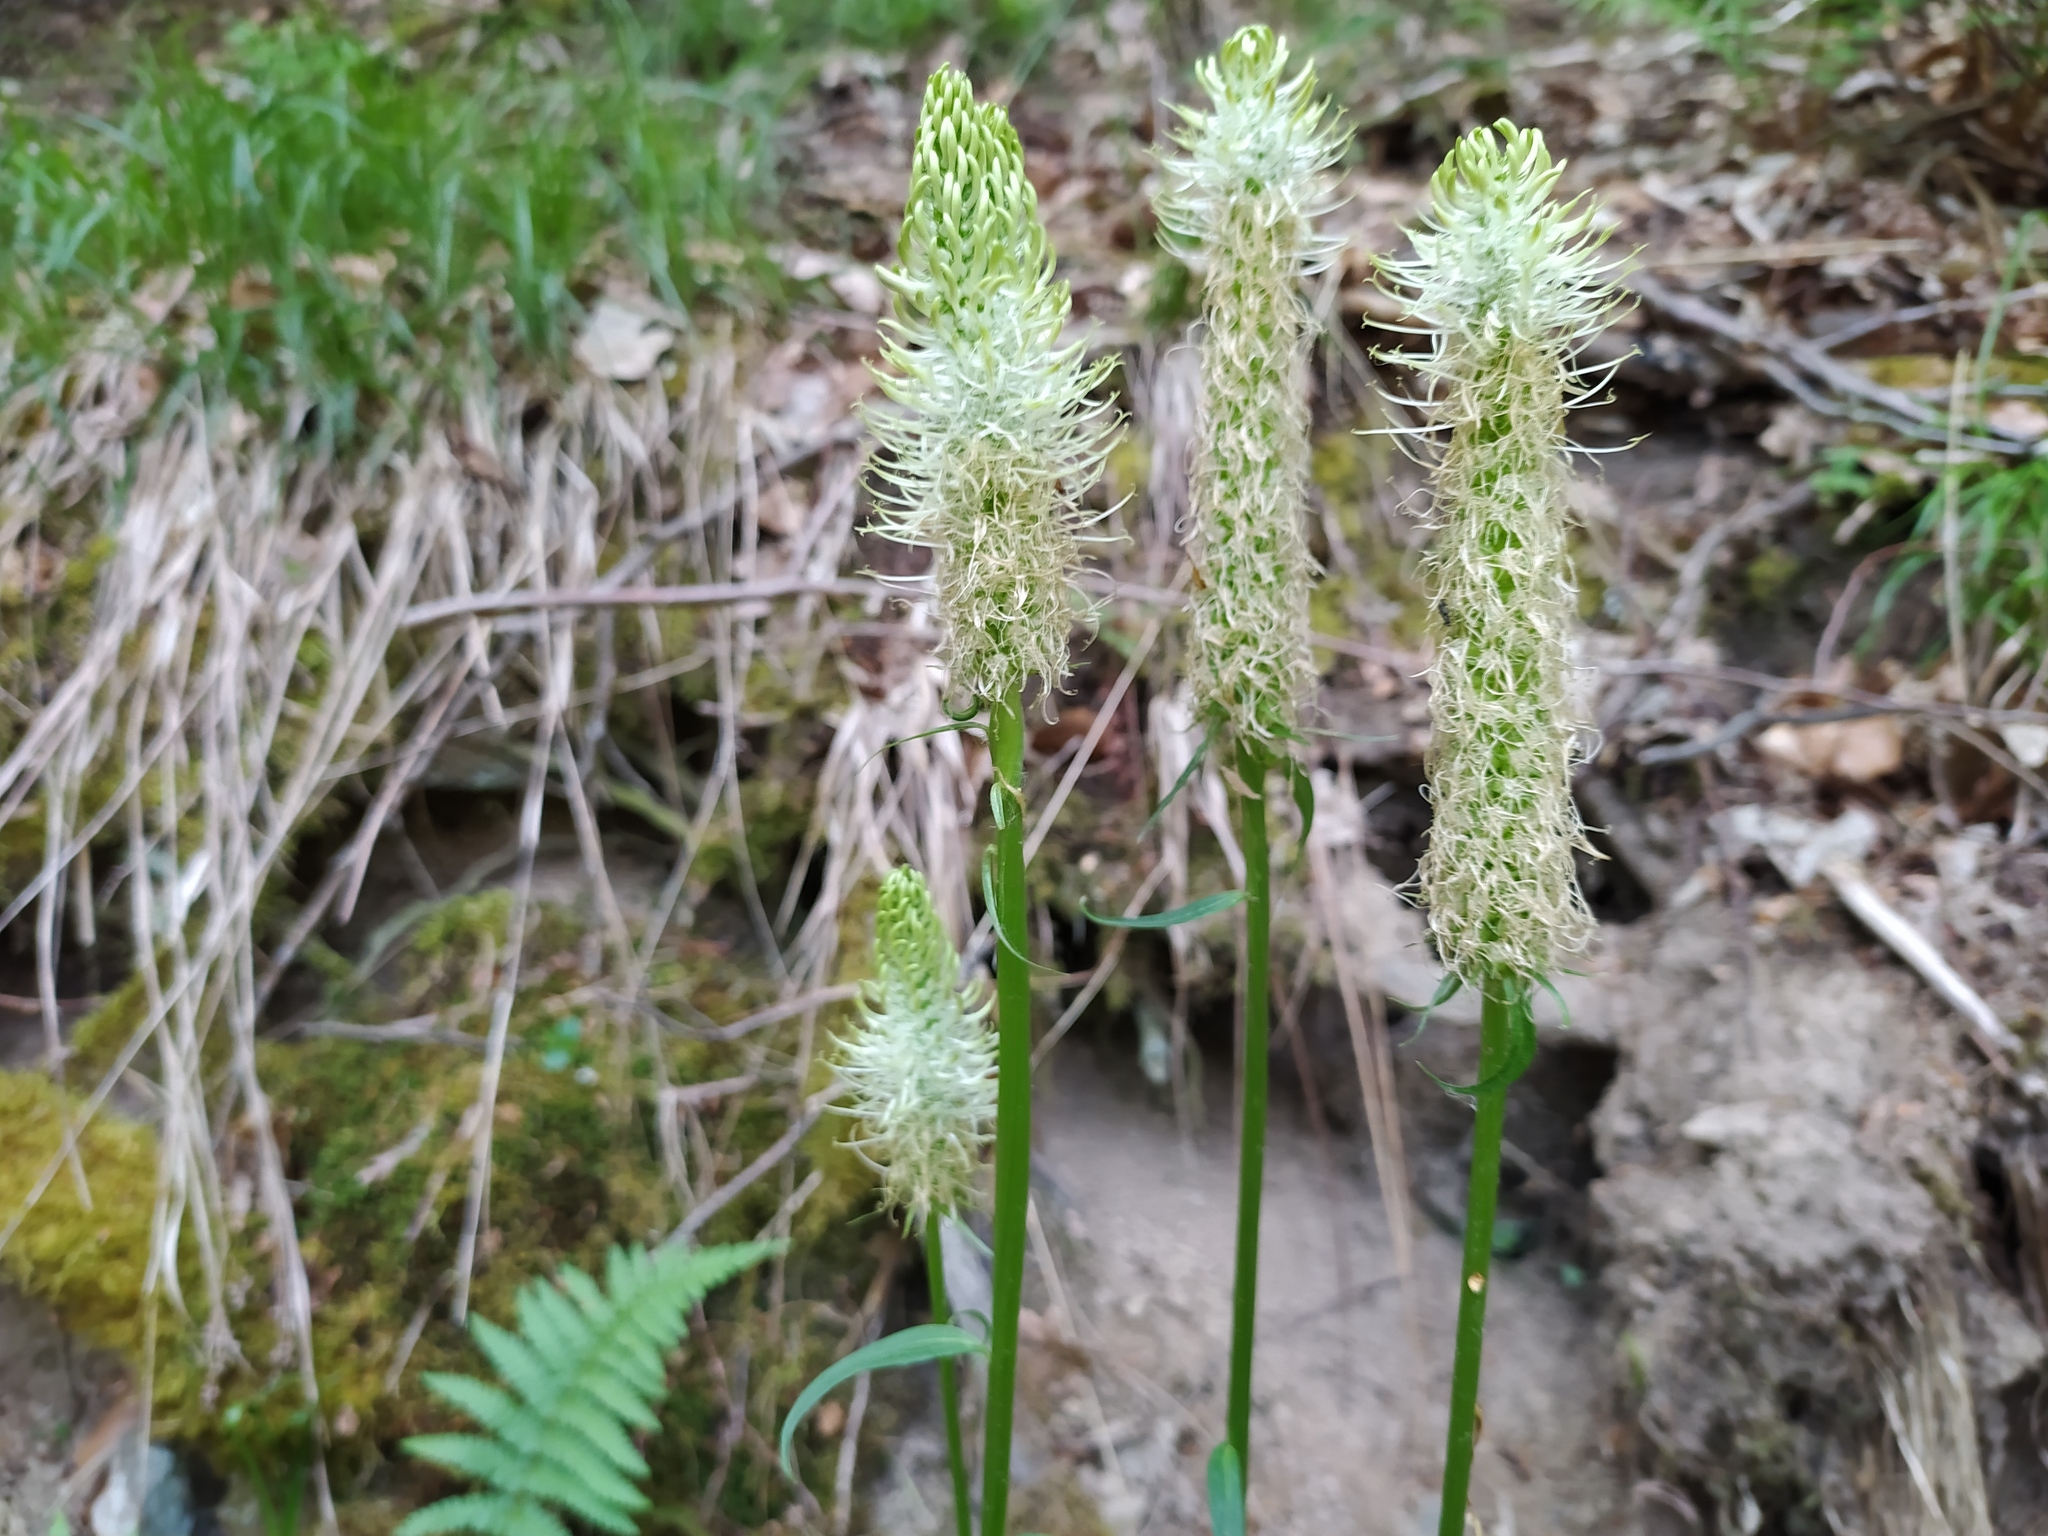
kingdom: Plantae
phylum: Tracheophyta
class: Magnoliopsida
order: Asterales
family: Campanulaceae
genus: Phyteuma
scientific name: Phyteuma spicatum
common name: Spiked rampion
